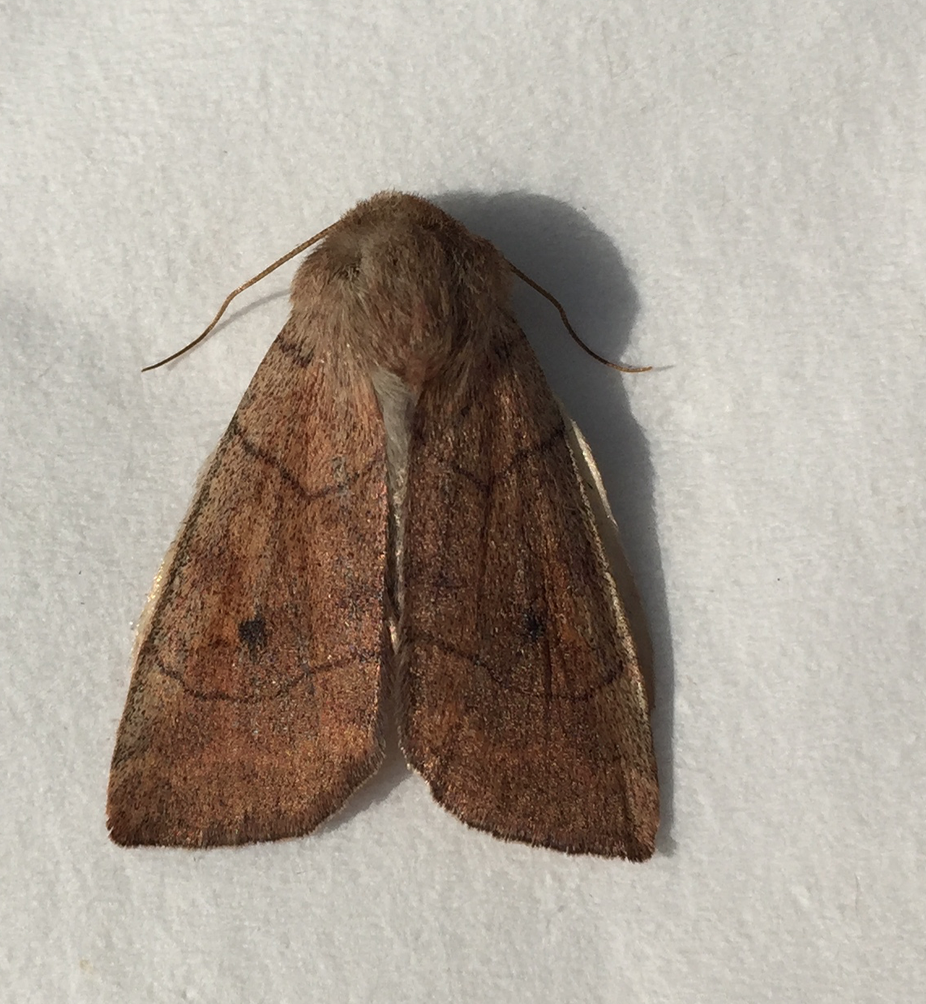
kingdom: Animalia
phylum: Arthropoda
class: Insecta
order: Lepidoptera
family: Noctuidae
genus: Enargia
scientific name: Enargia infumata
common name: Smoked sallow
